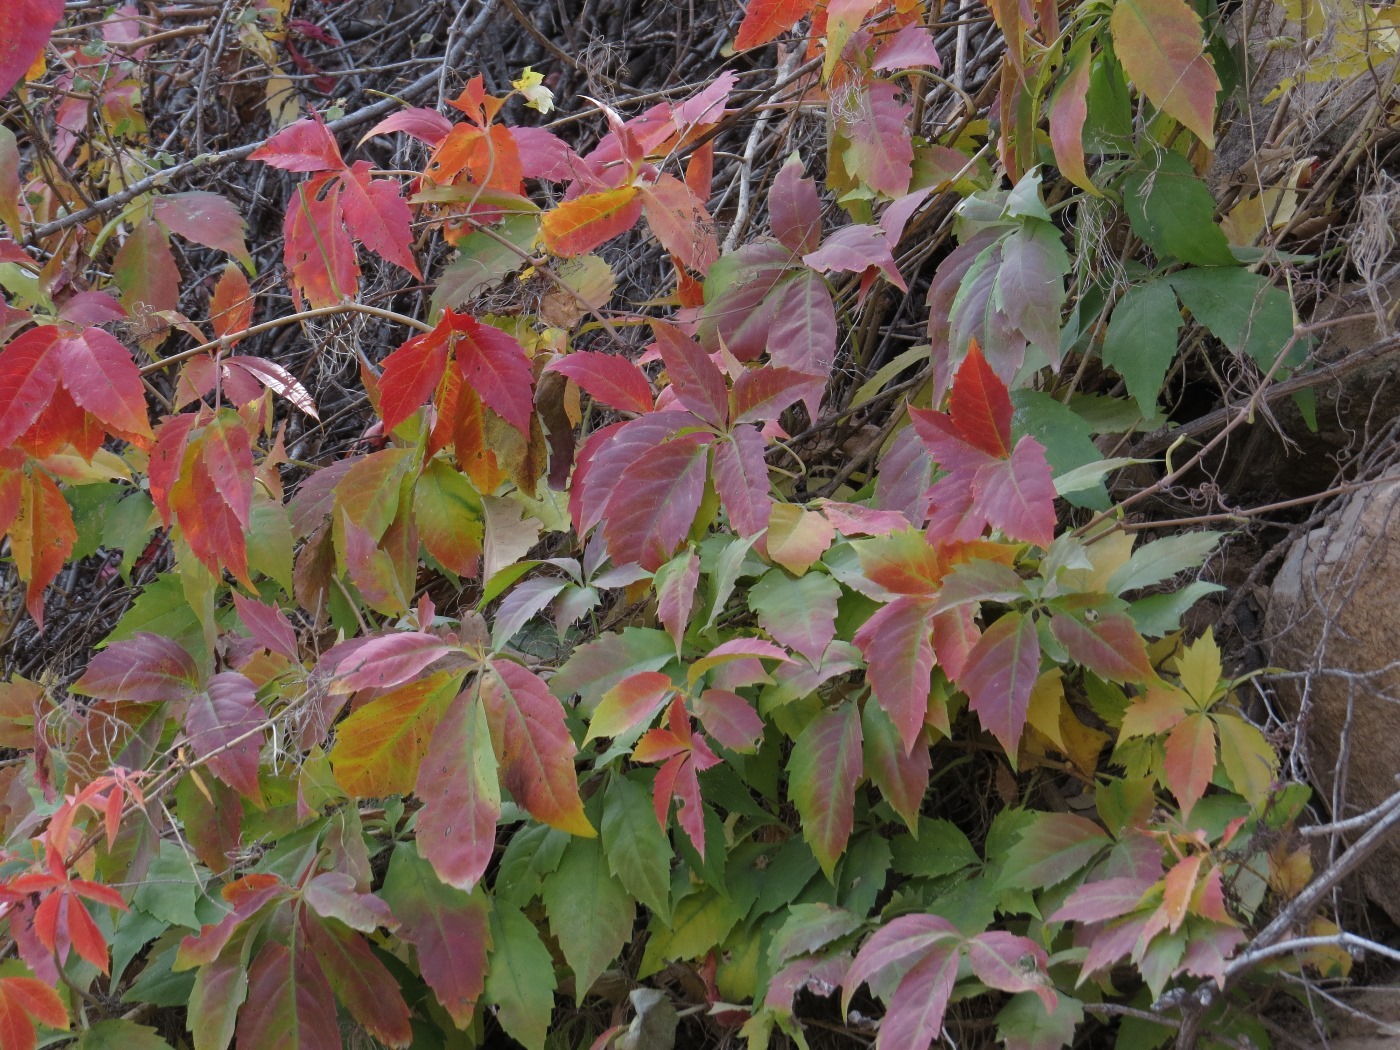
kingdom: Plantae
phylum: Tracheophyta
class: Magnoliopsida
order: Vitales
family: Vitaceae
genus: Parthenocissus
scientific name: Parthenocissus inserta
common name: False virginia-creeper
